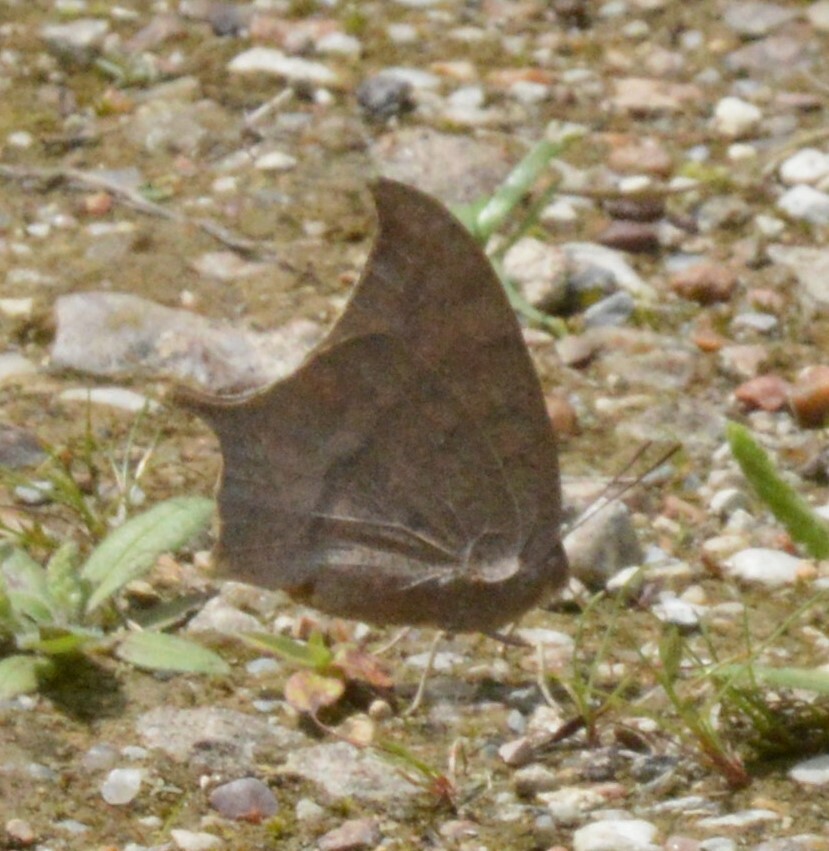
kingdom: Animalia
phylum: Arthropoda
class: Insecta
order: Lepidoptera
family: Nymphalidae
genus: Anaea
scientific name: Anaea andria
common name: Goatweed leafwing
